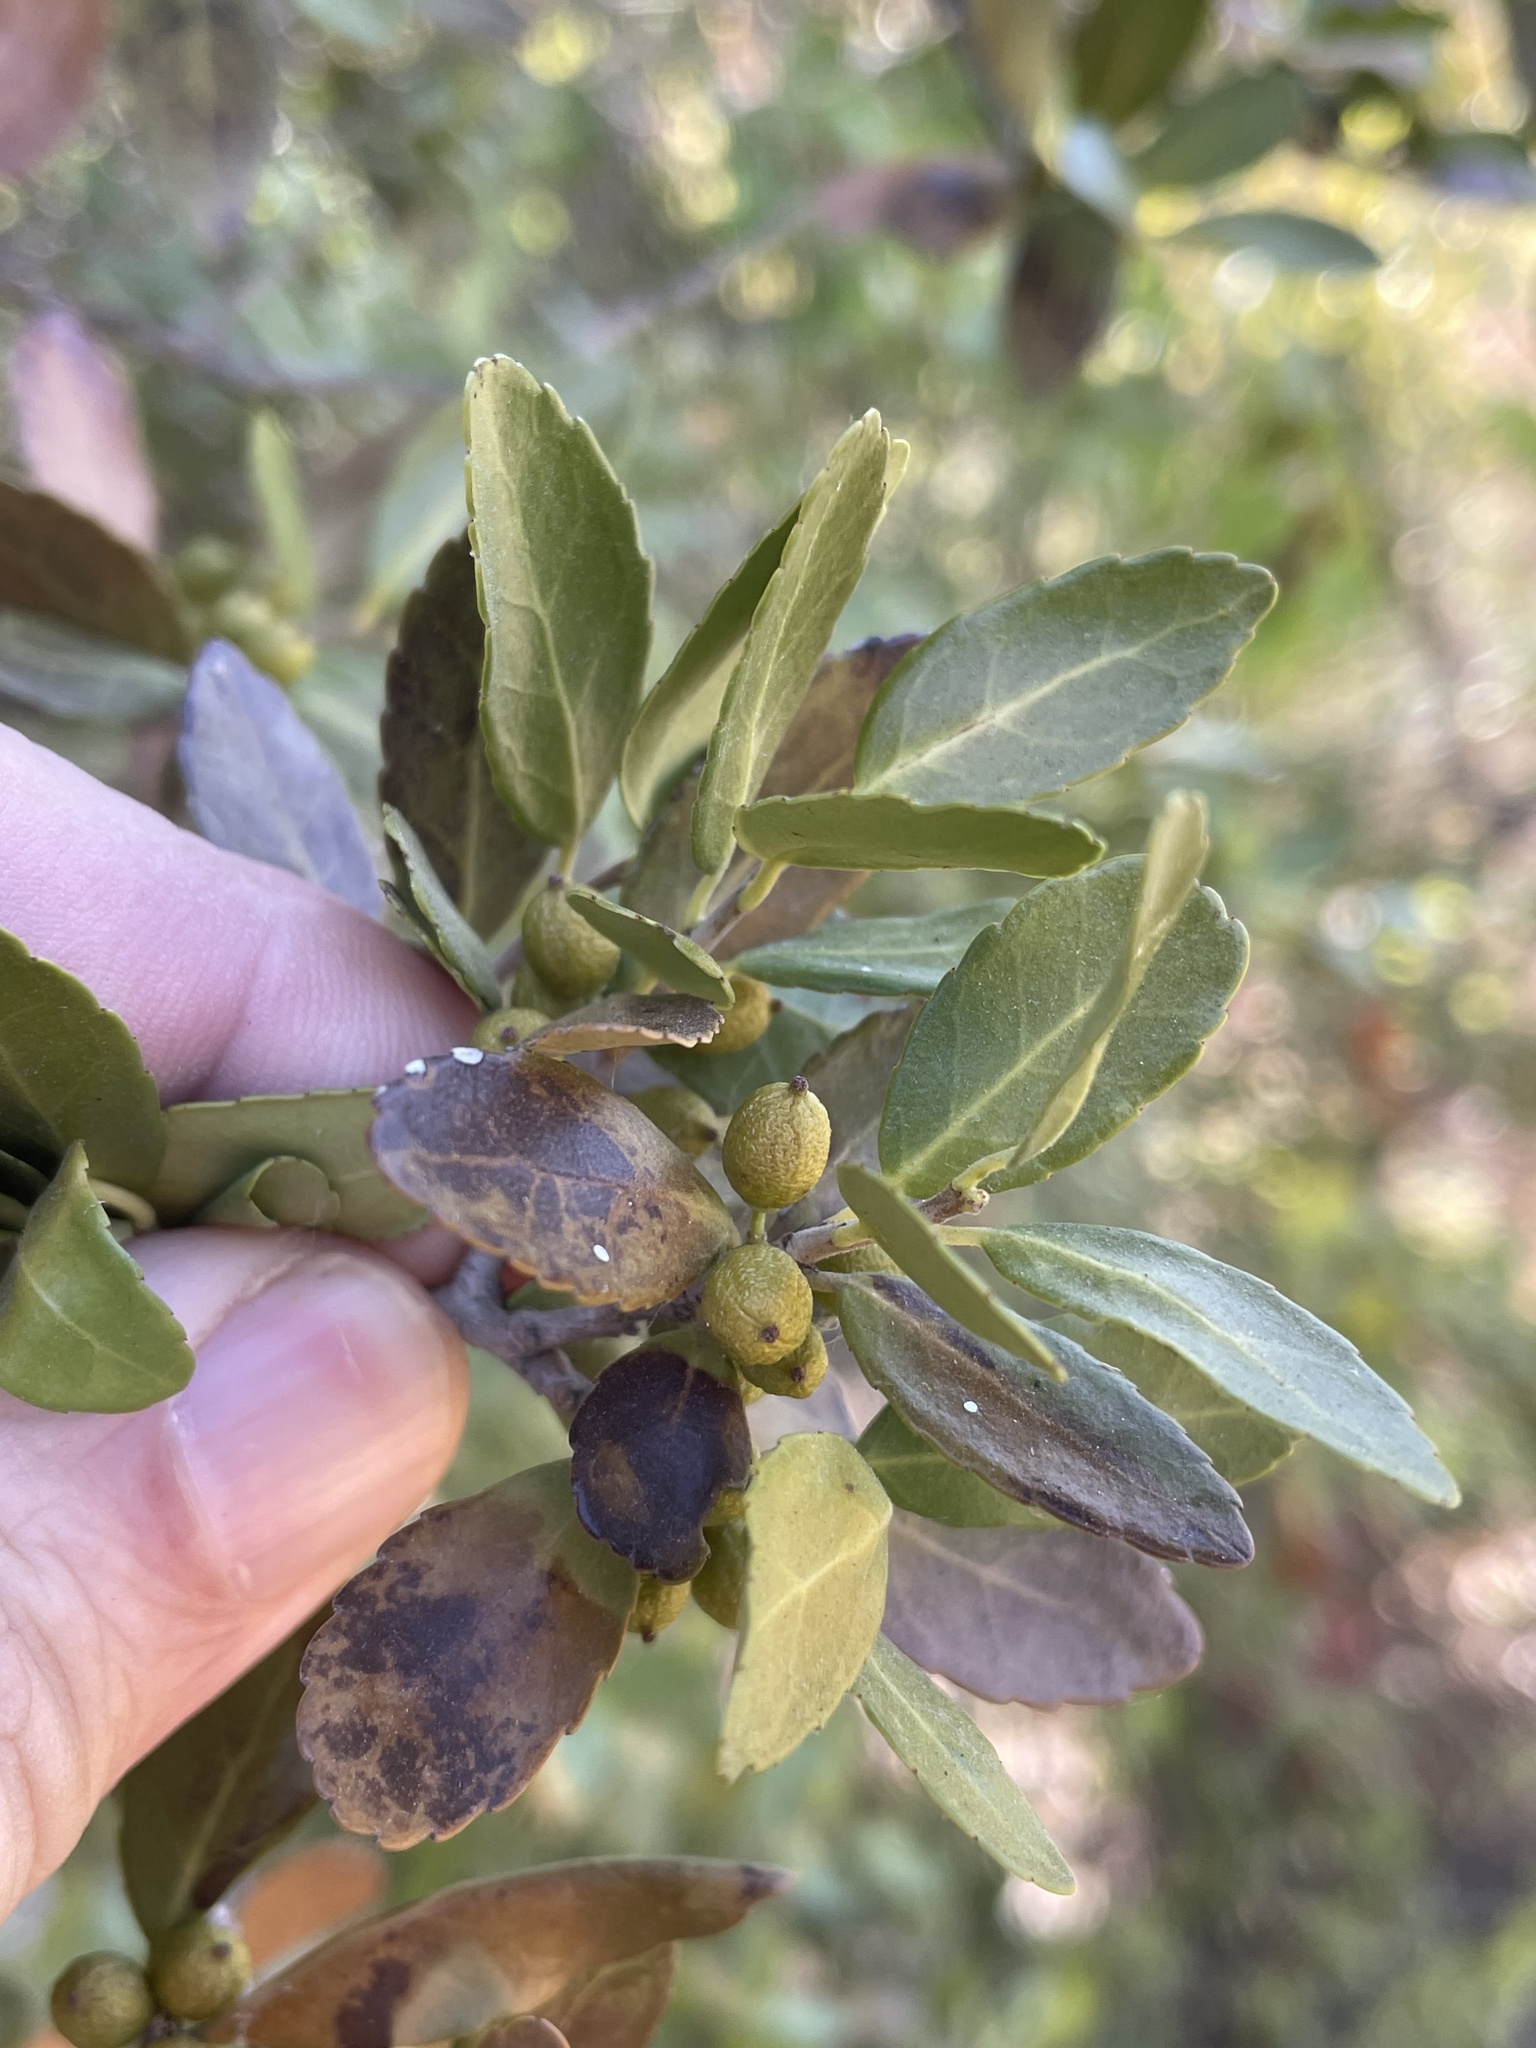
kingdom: Plantae
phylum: Tracheophyta
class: Magnoliopsida
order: Aquifoliales
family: Aquifoliaceae
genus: Ilex
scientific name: Ilex vomitoria
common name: Yaupon holly
